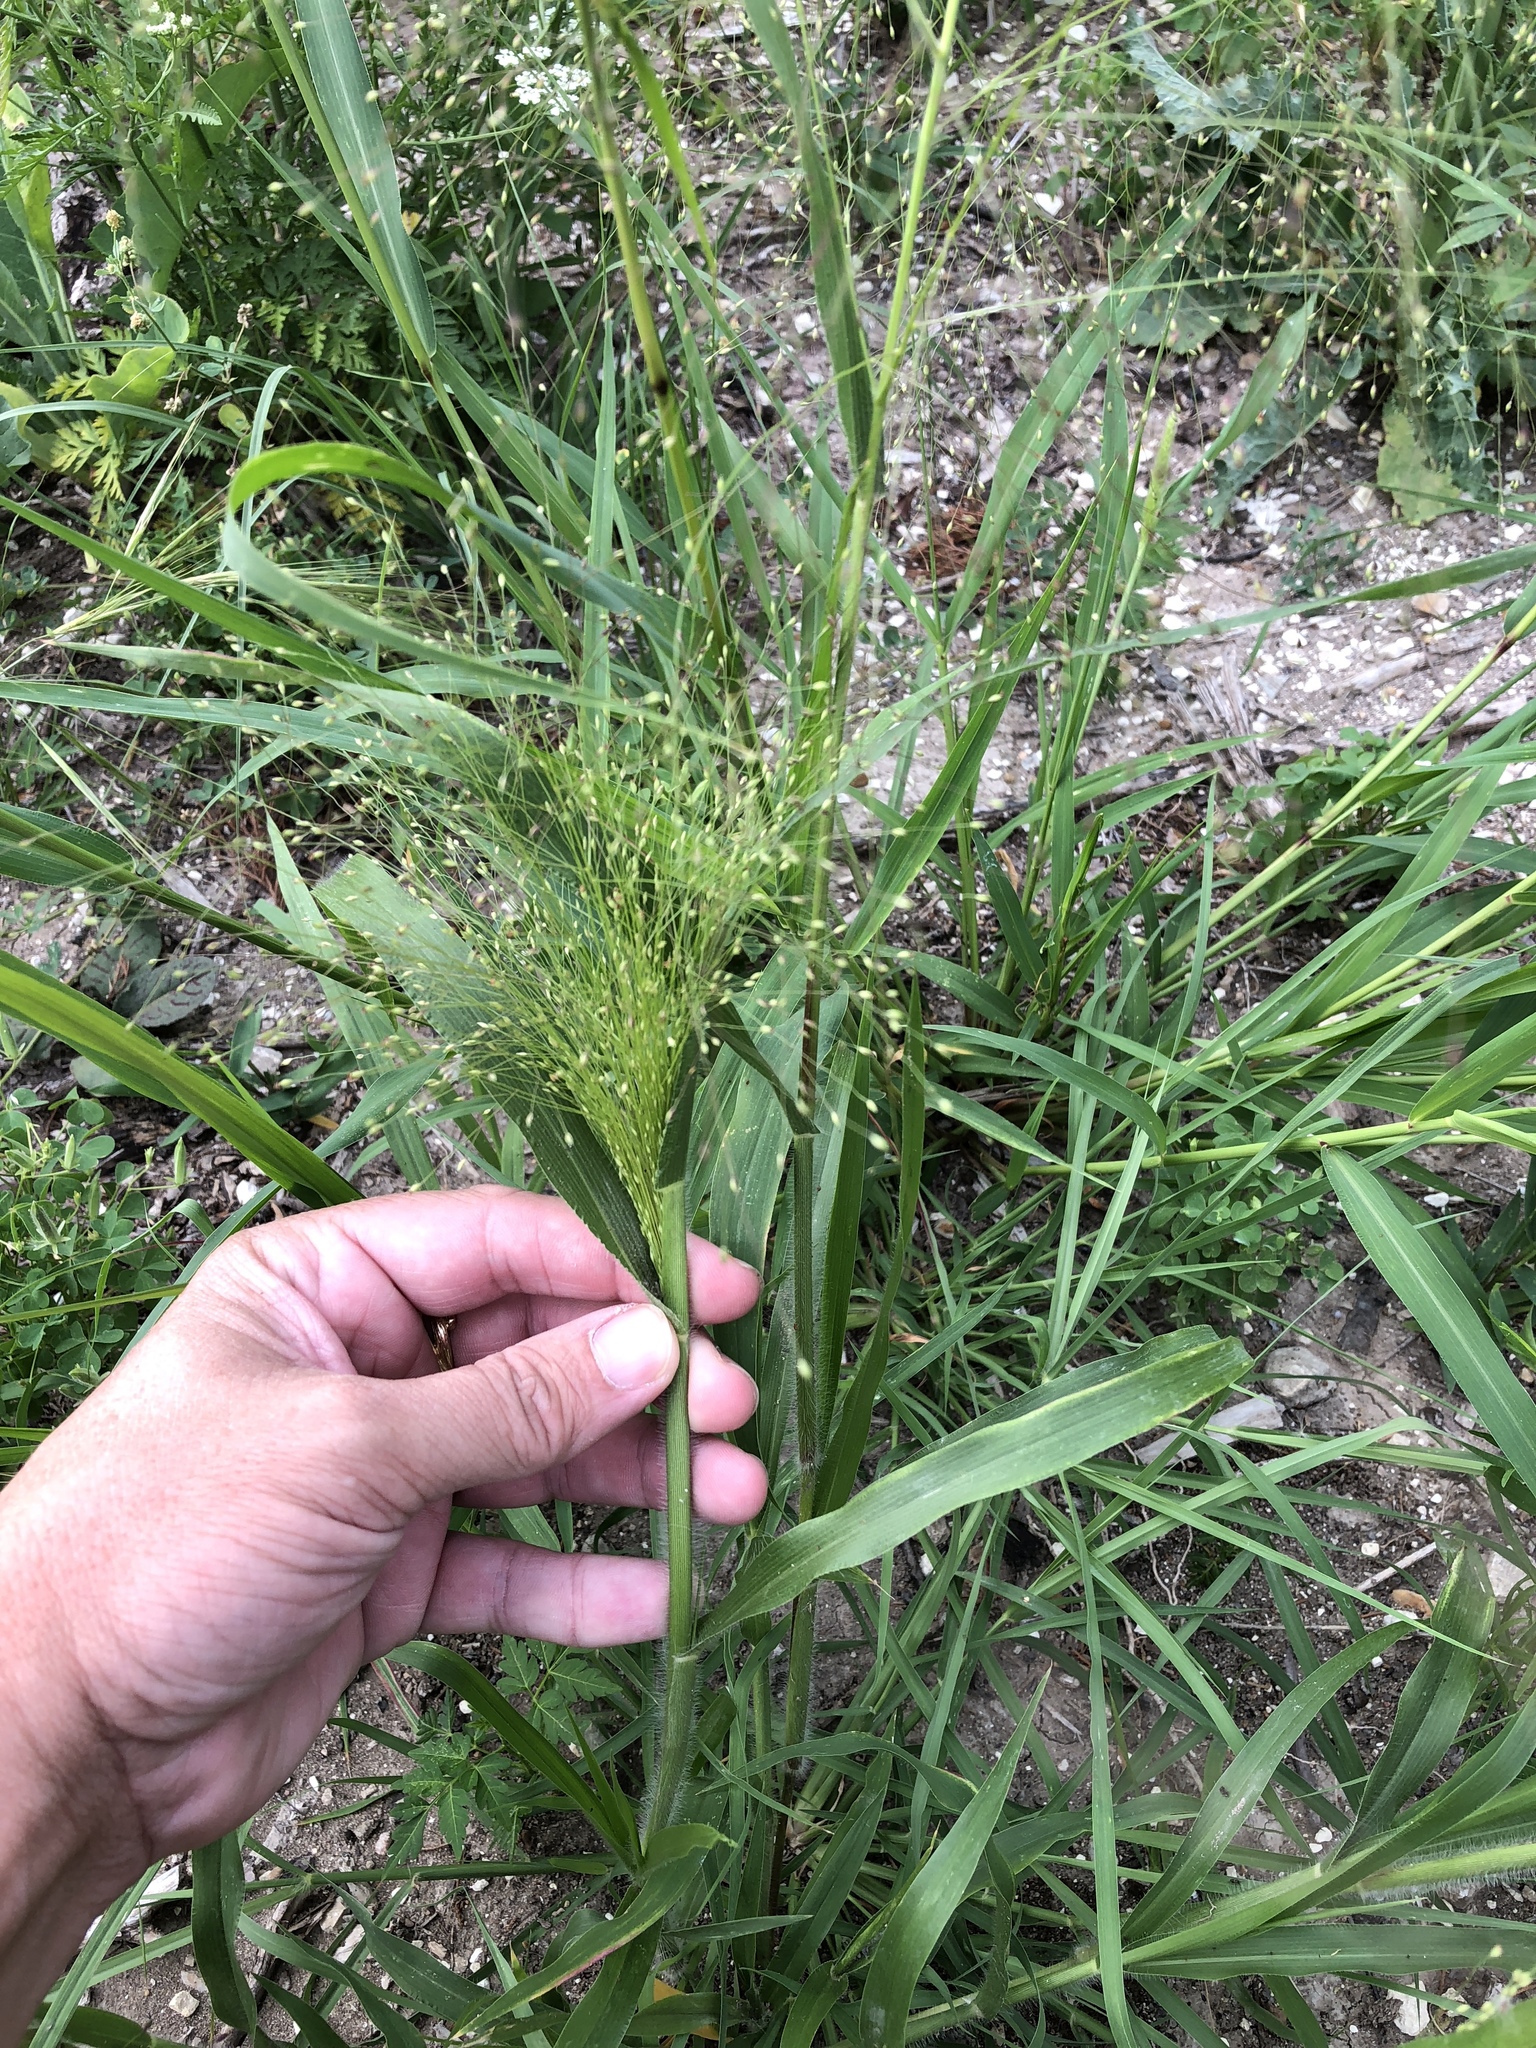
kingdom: Plantae
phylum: Tracheophyta
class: Liliopsida
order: Poales
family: Poaceae
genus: Panicum
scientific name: Panicum capillare
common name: Witch-grass
